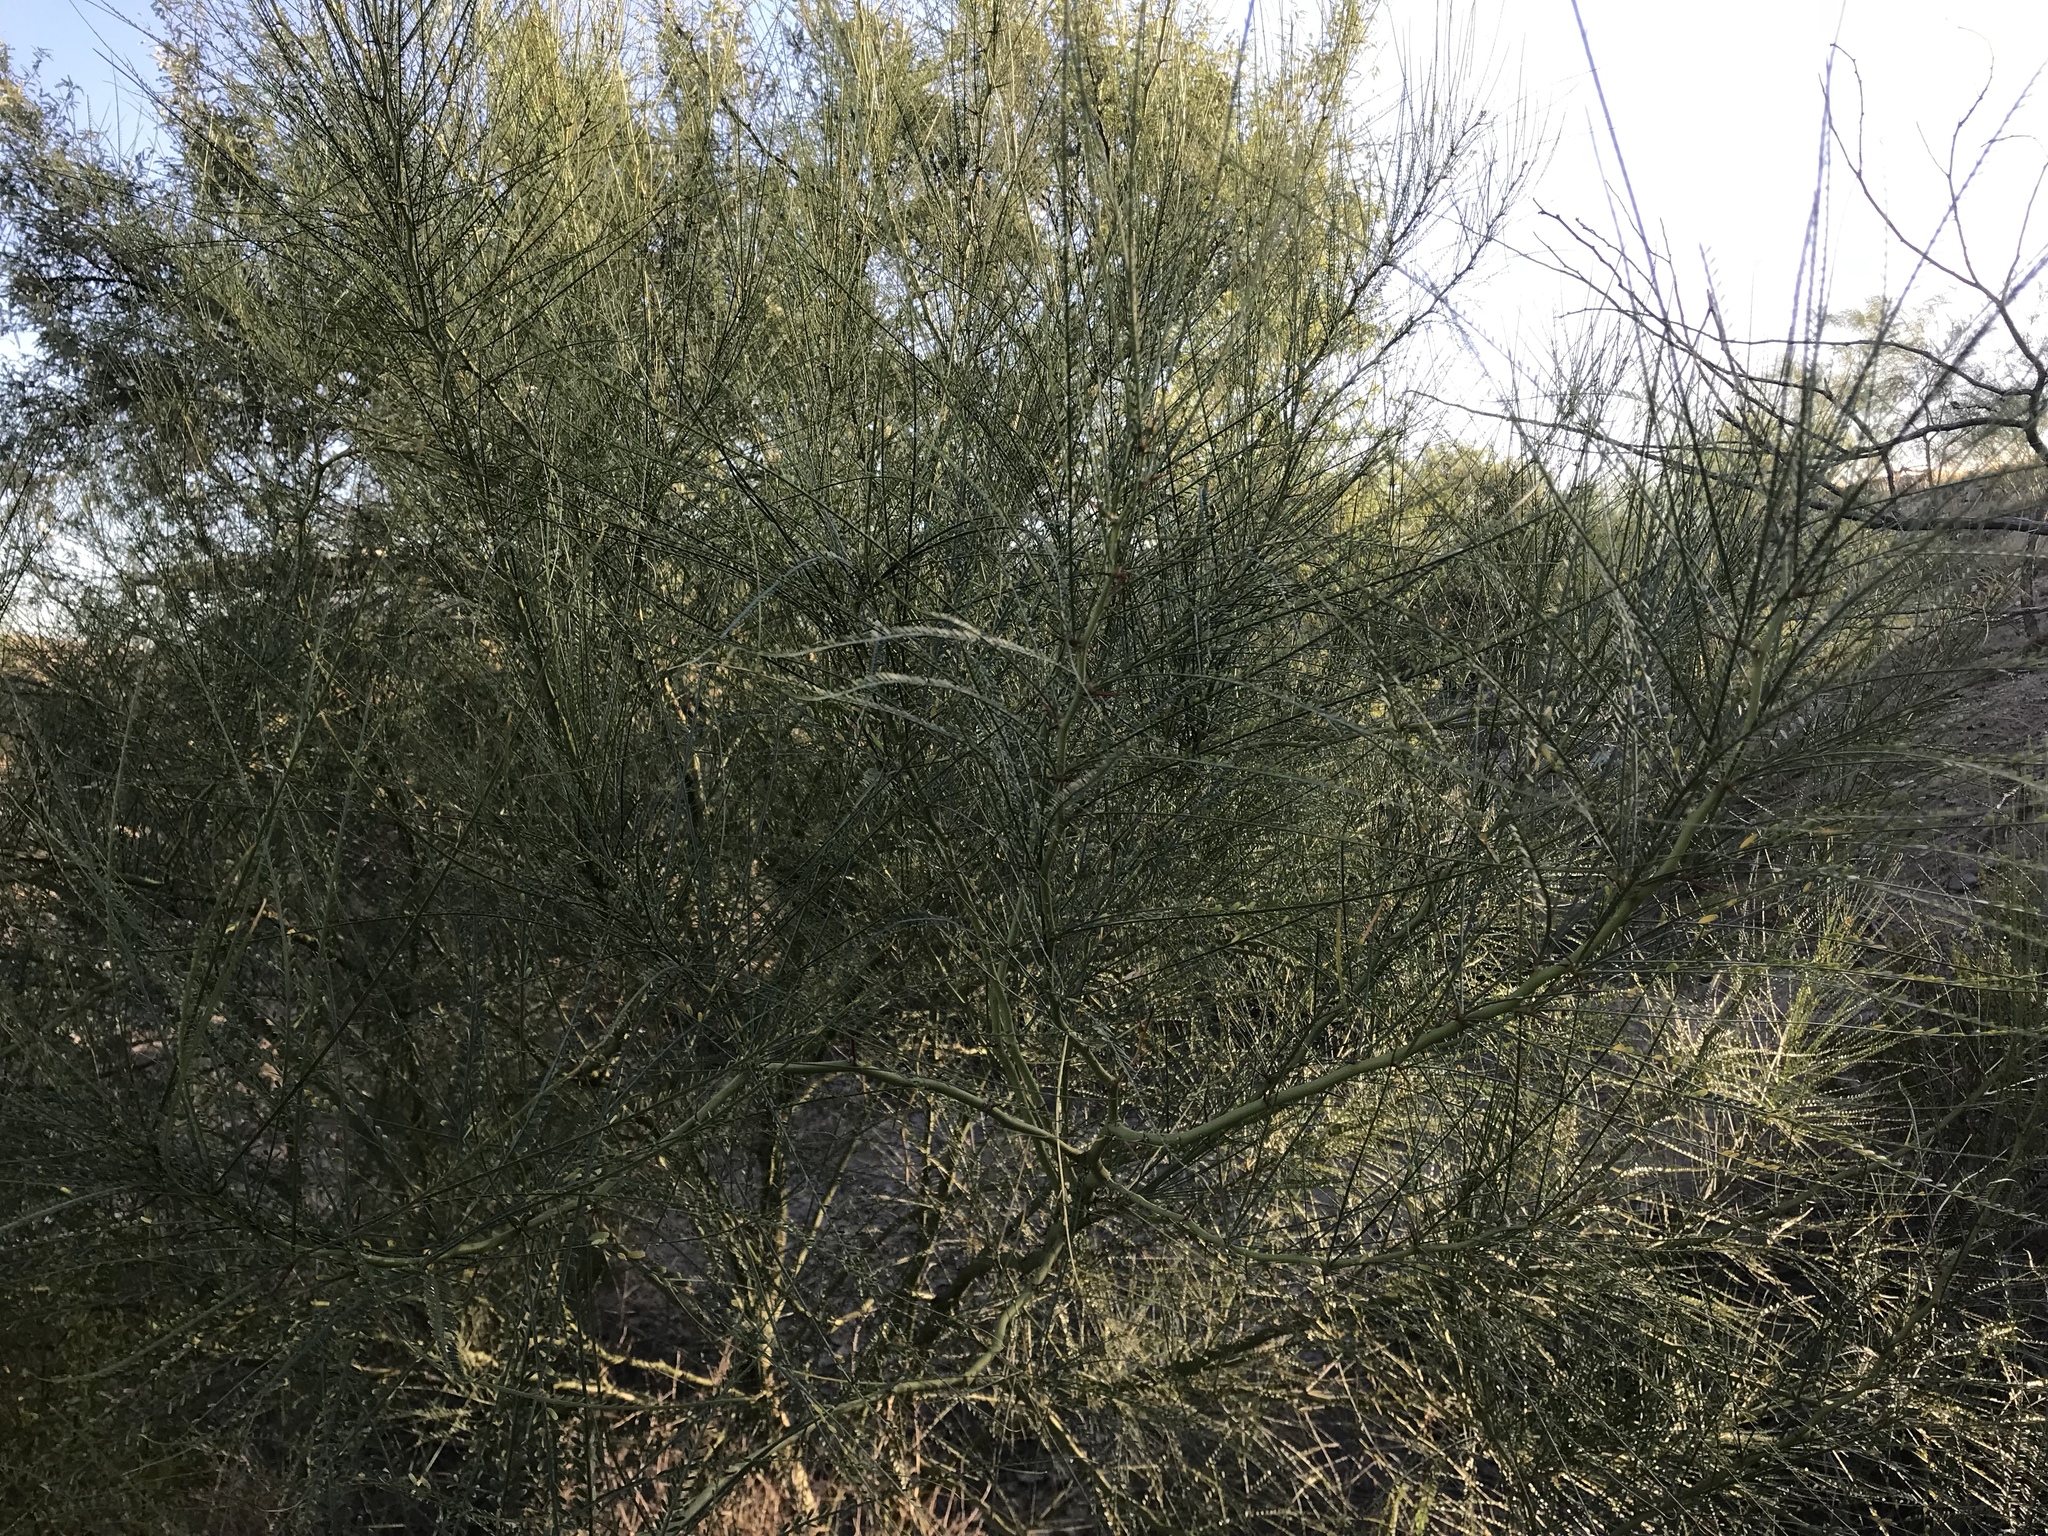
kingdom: Plantae
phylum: Tracheophyta
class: Magnoliopsida
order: Fabales
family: Fabaceae
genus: Parkinsonia
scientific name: Parkinsonia aculeata
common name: Jerusalem thorn
